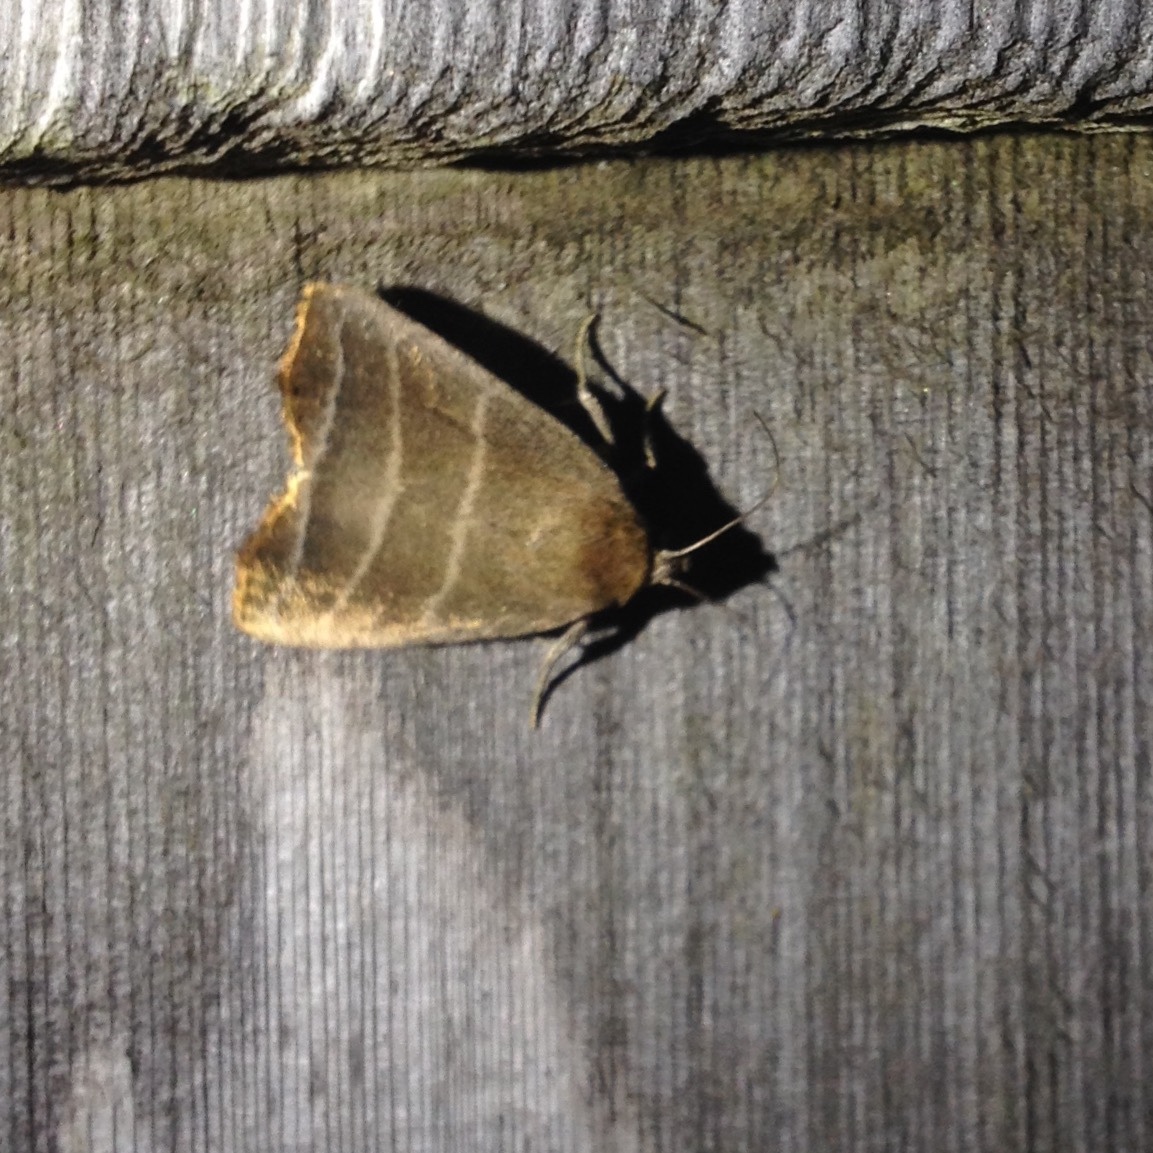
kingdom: Animalia
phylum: Arthropoda
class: Insecta
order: Lepidoptera
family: Noctuidae
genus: Bagisara
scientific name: Bagisara rectifascia
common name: Straight lined mallow moth
